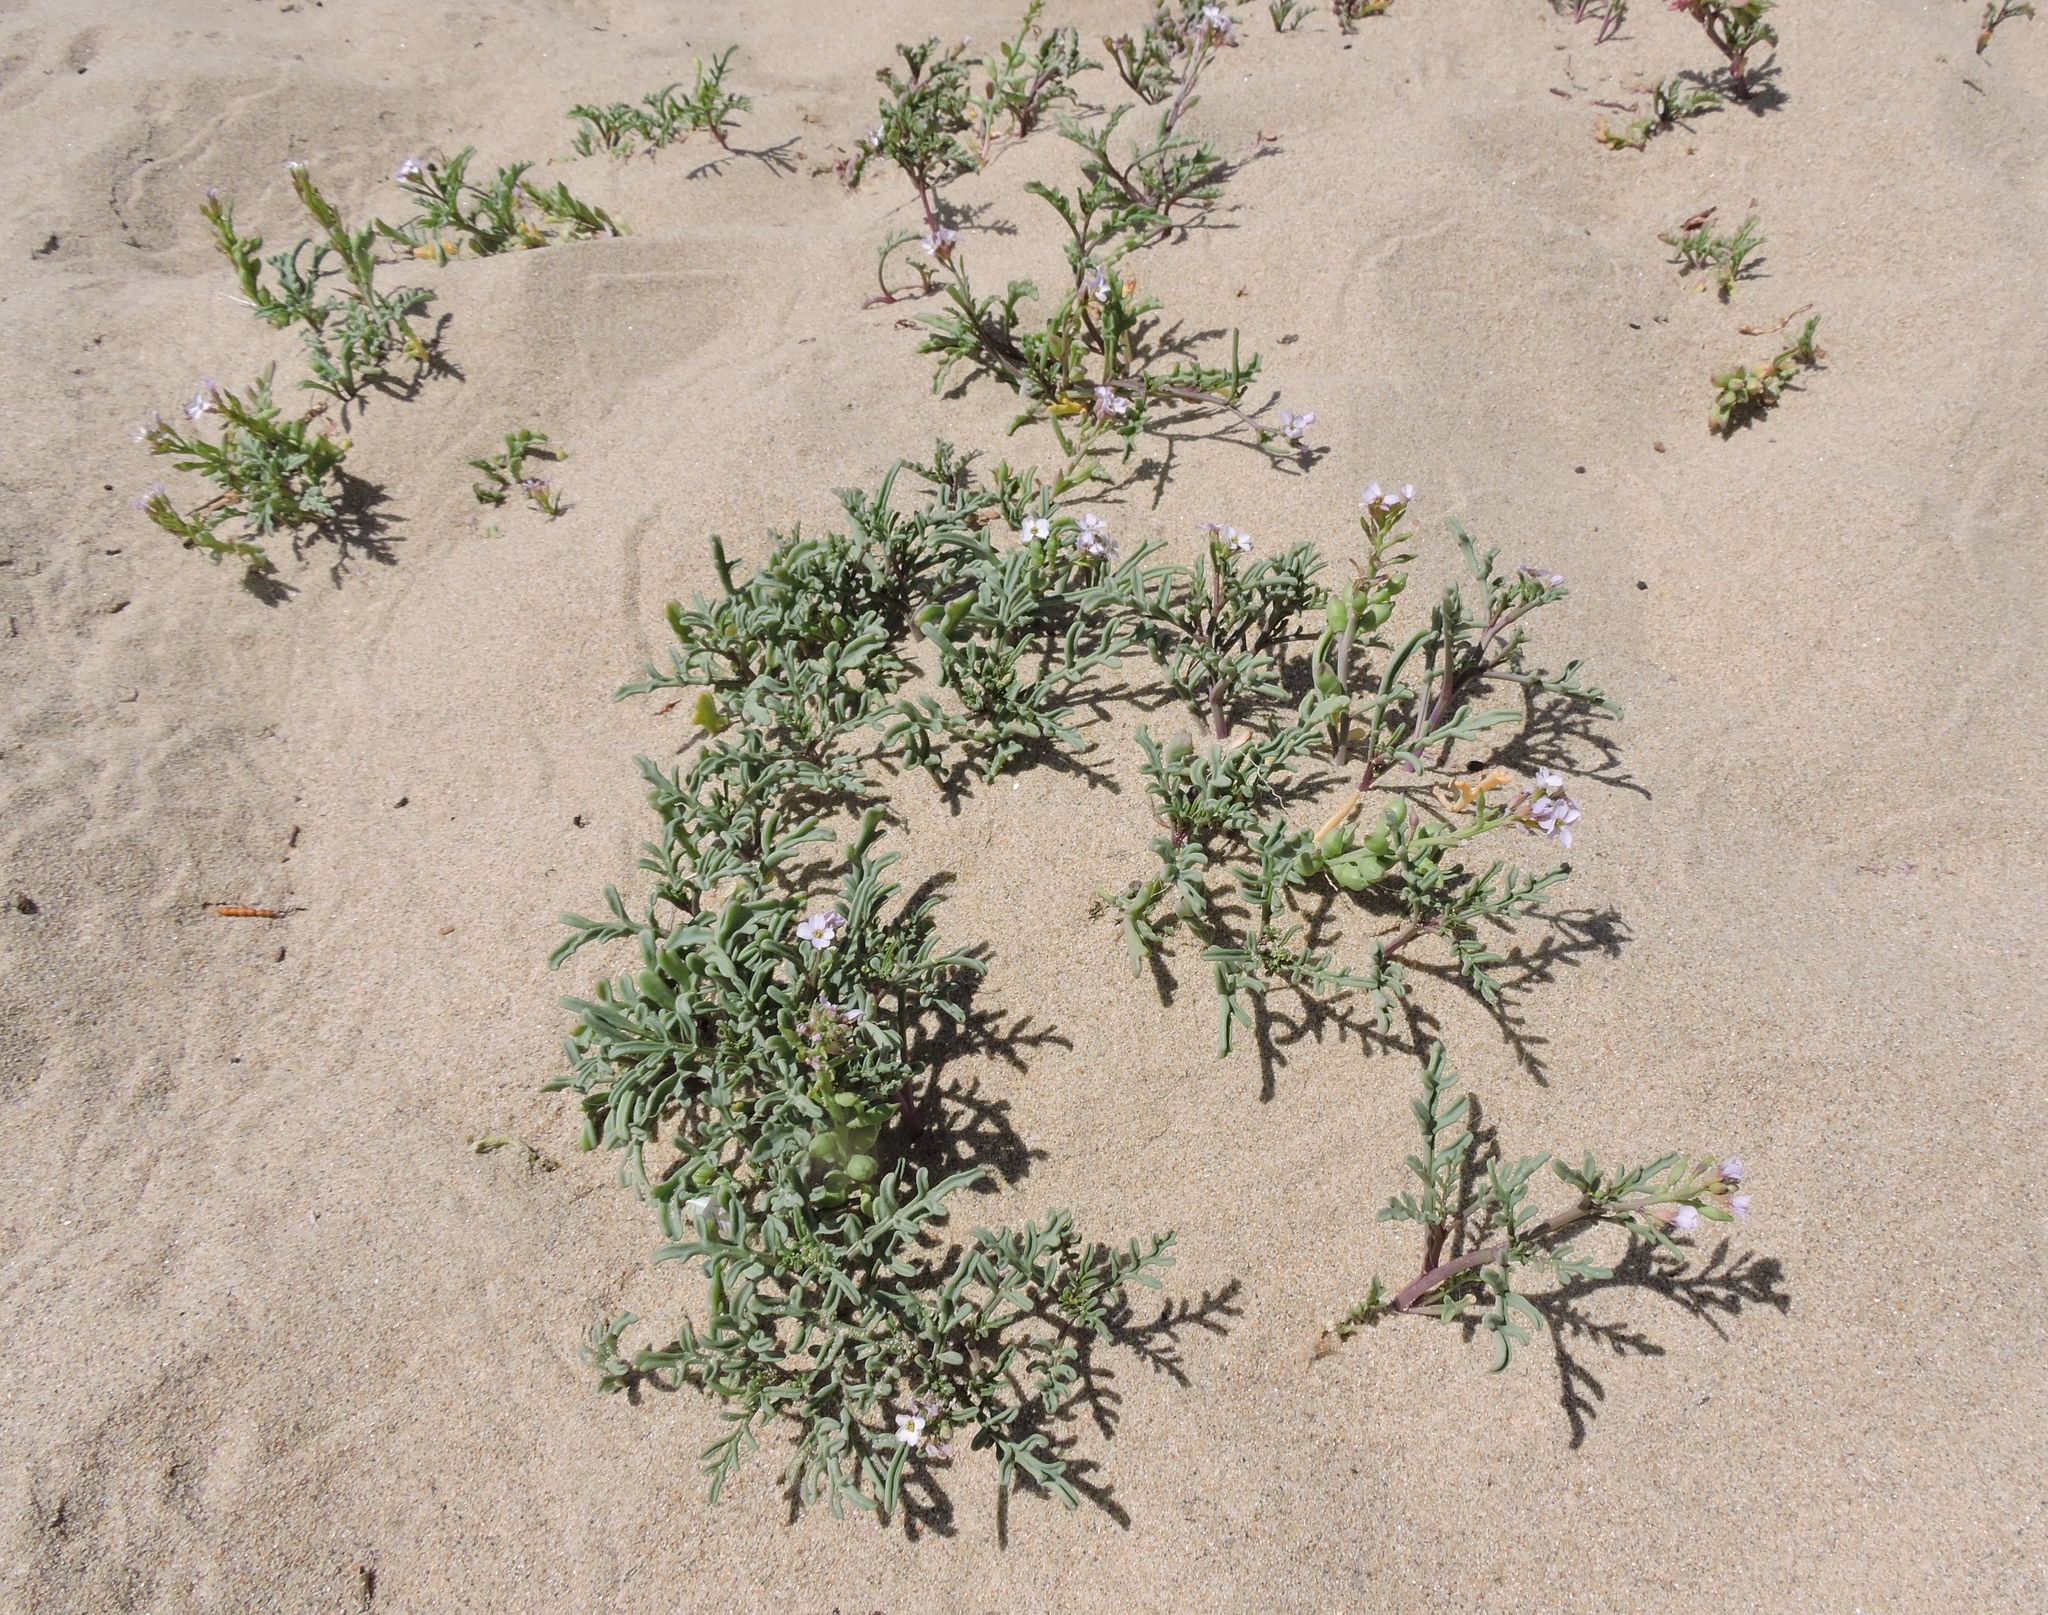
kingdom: Plantae
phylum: Tracheophyta
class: Magnoliopsida
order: Brassicales
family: Brassicaceae
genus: Cakile
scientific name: Cakile maritima
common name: Sea rocket
